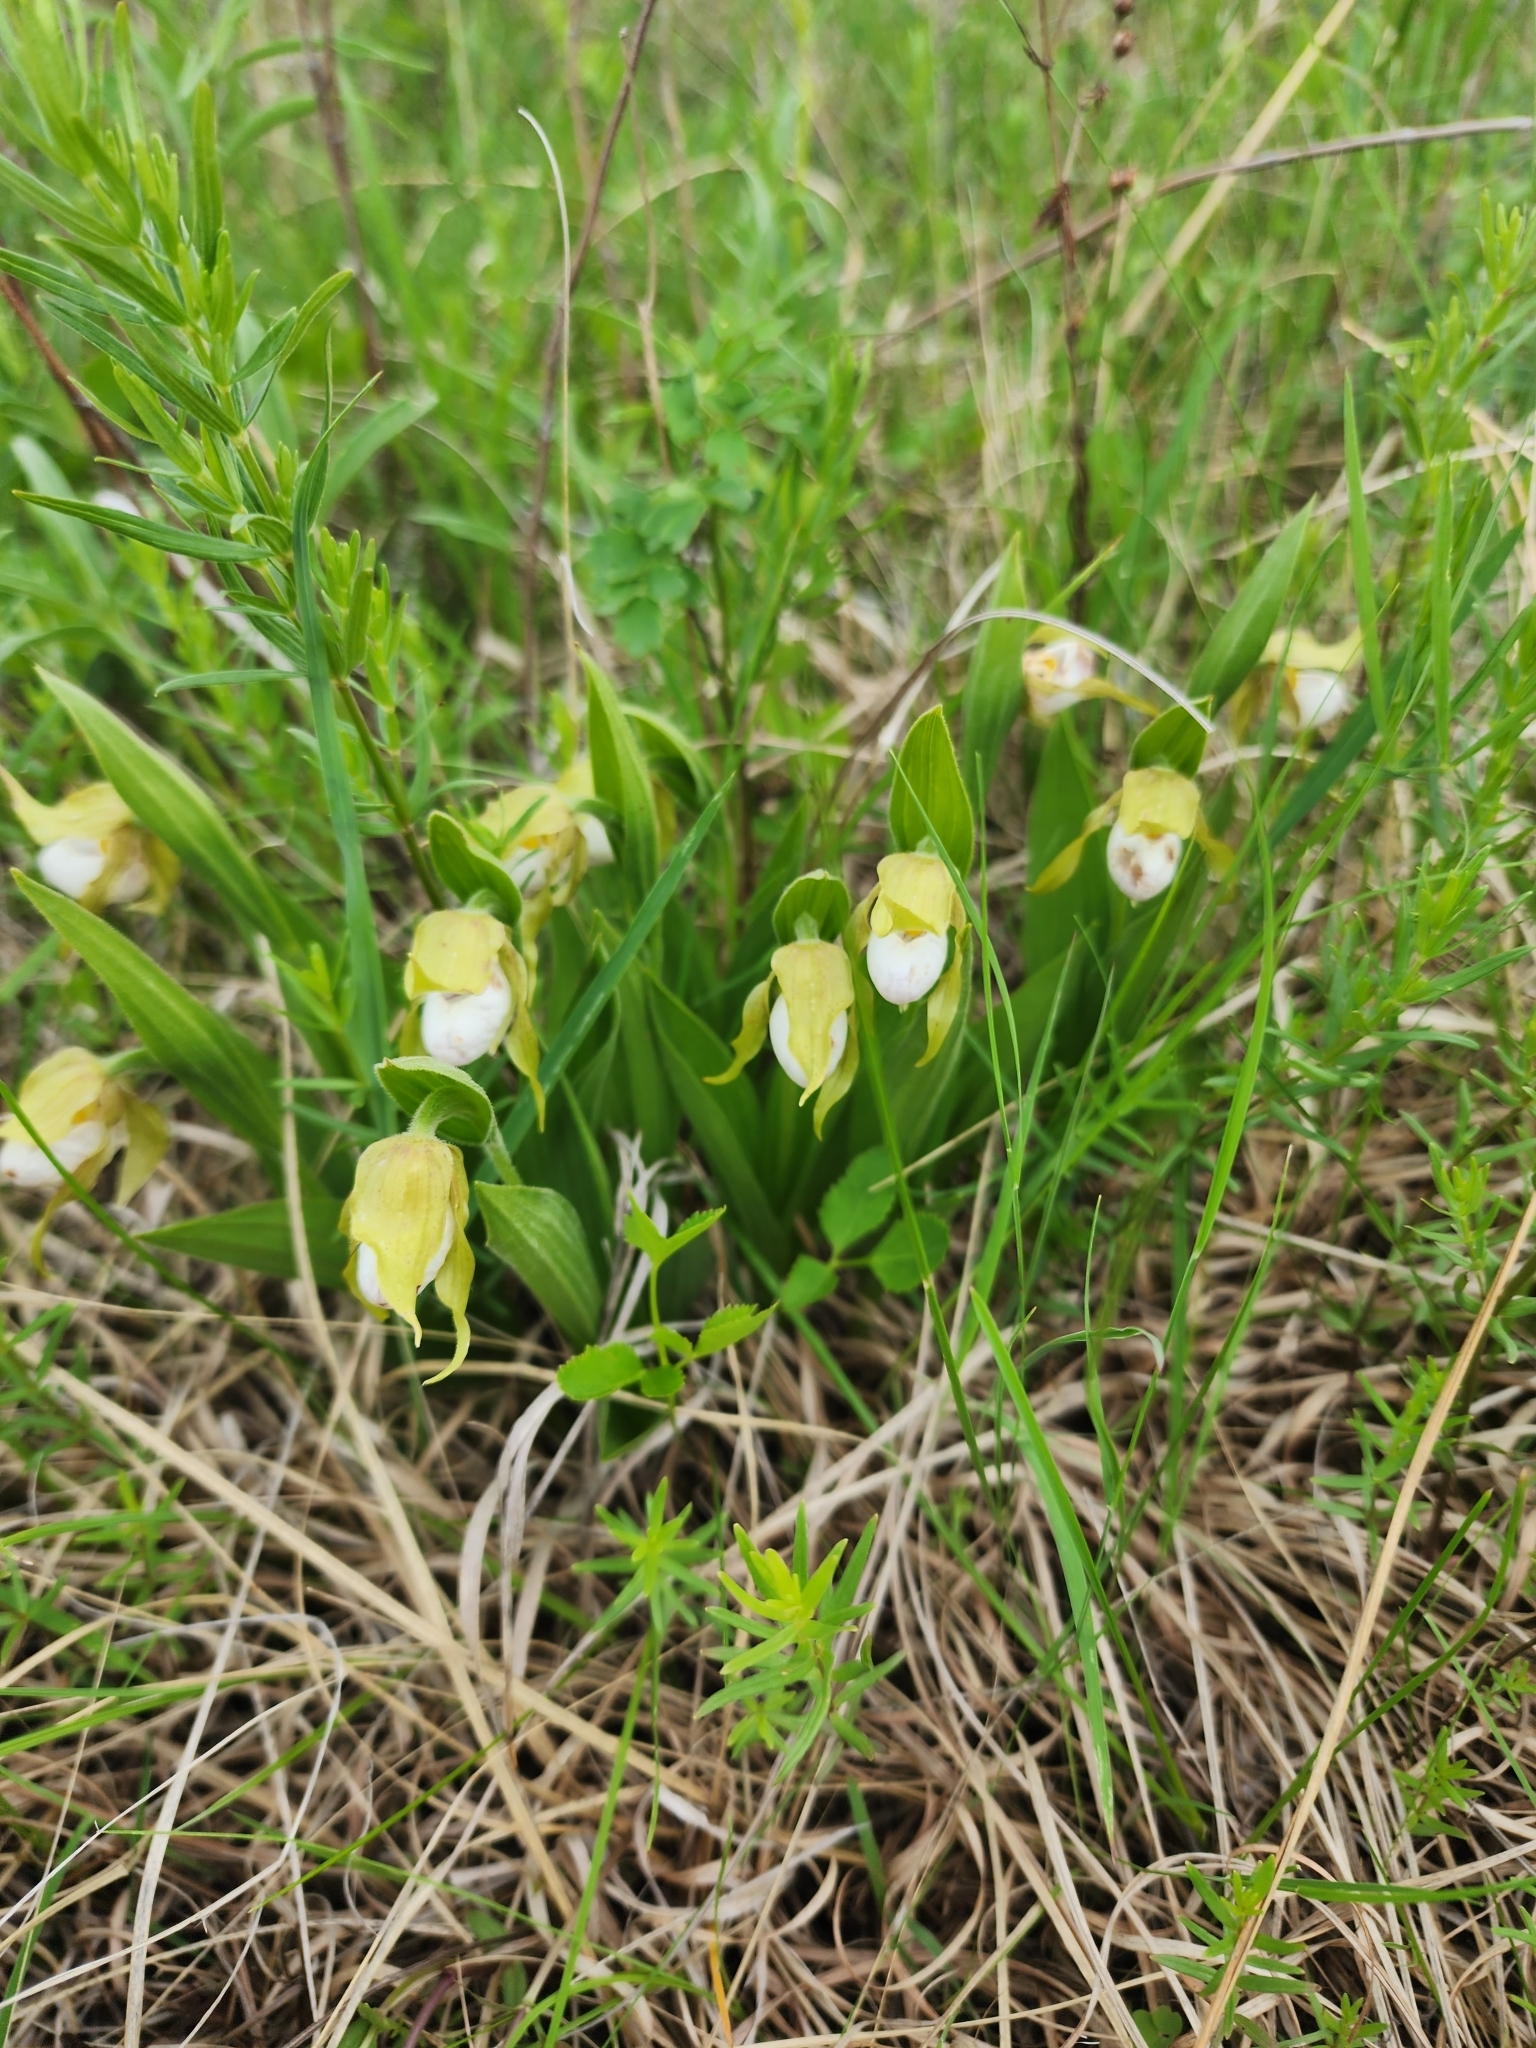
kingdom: Plantae
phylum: Tracheophyta
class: Liliopsida
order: Asparagales
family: Orchidaceae
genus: Cypripedium
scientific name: Cypripedium candidum
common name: White lady's-slipper
